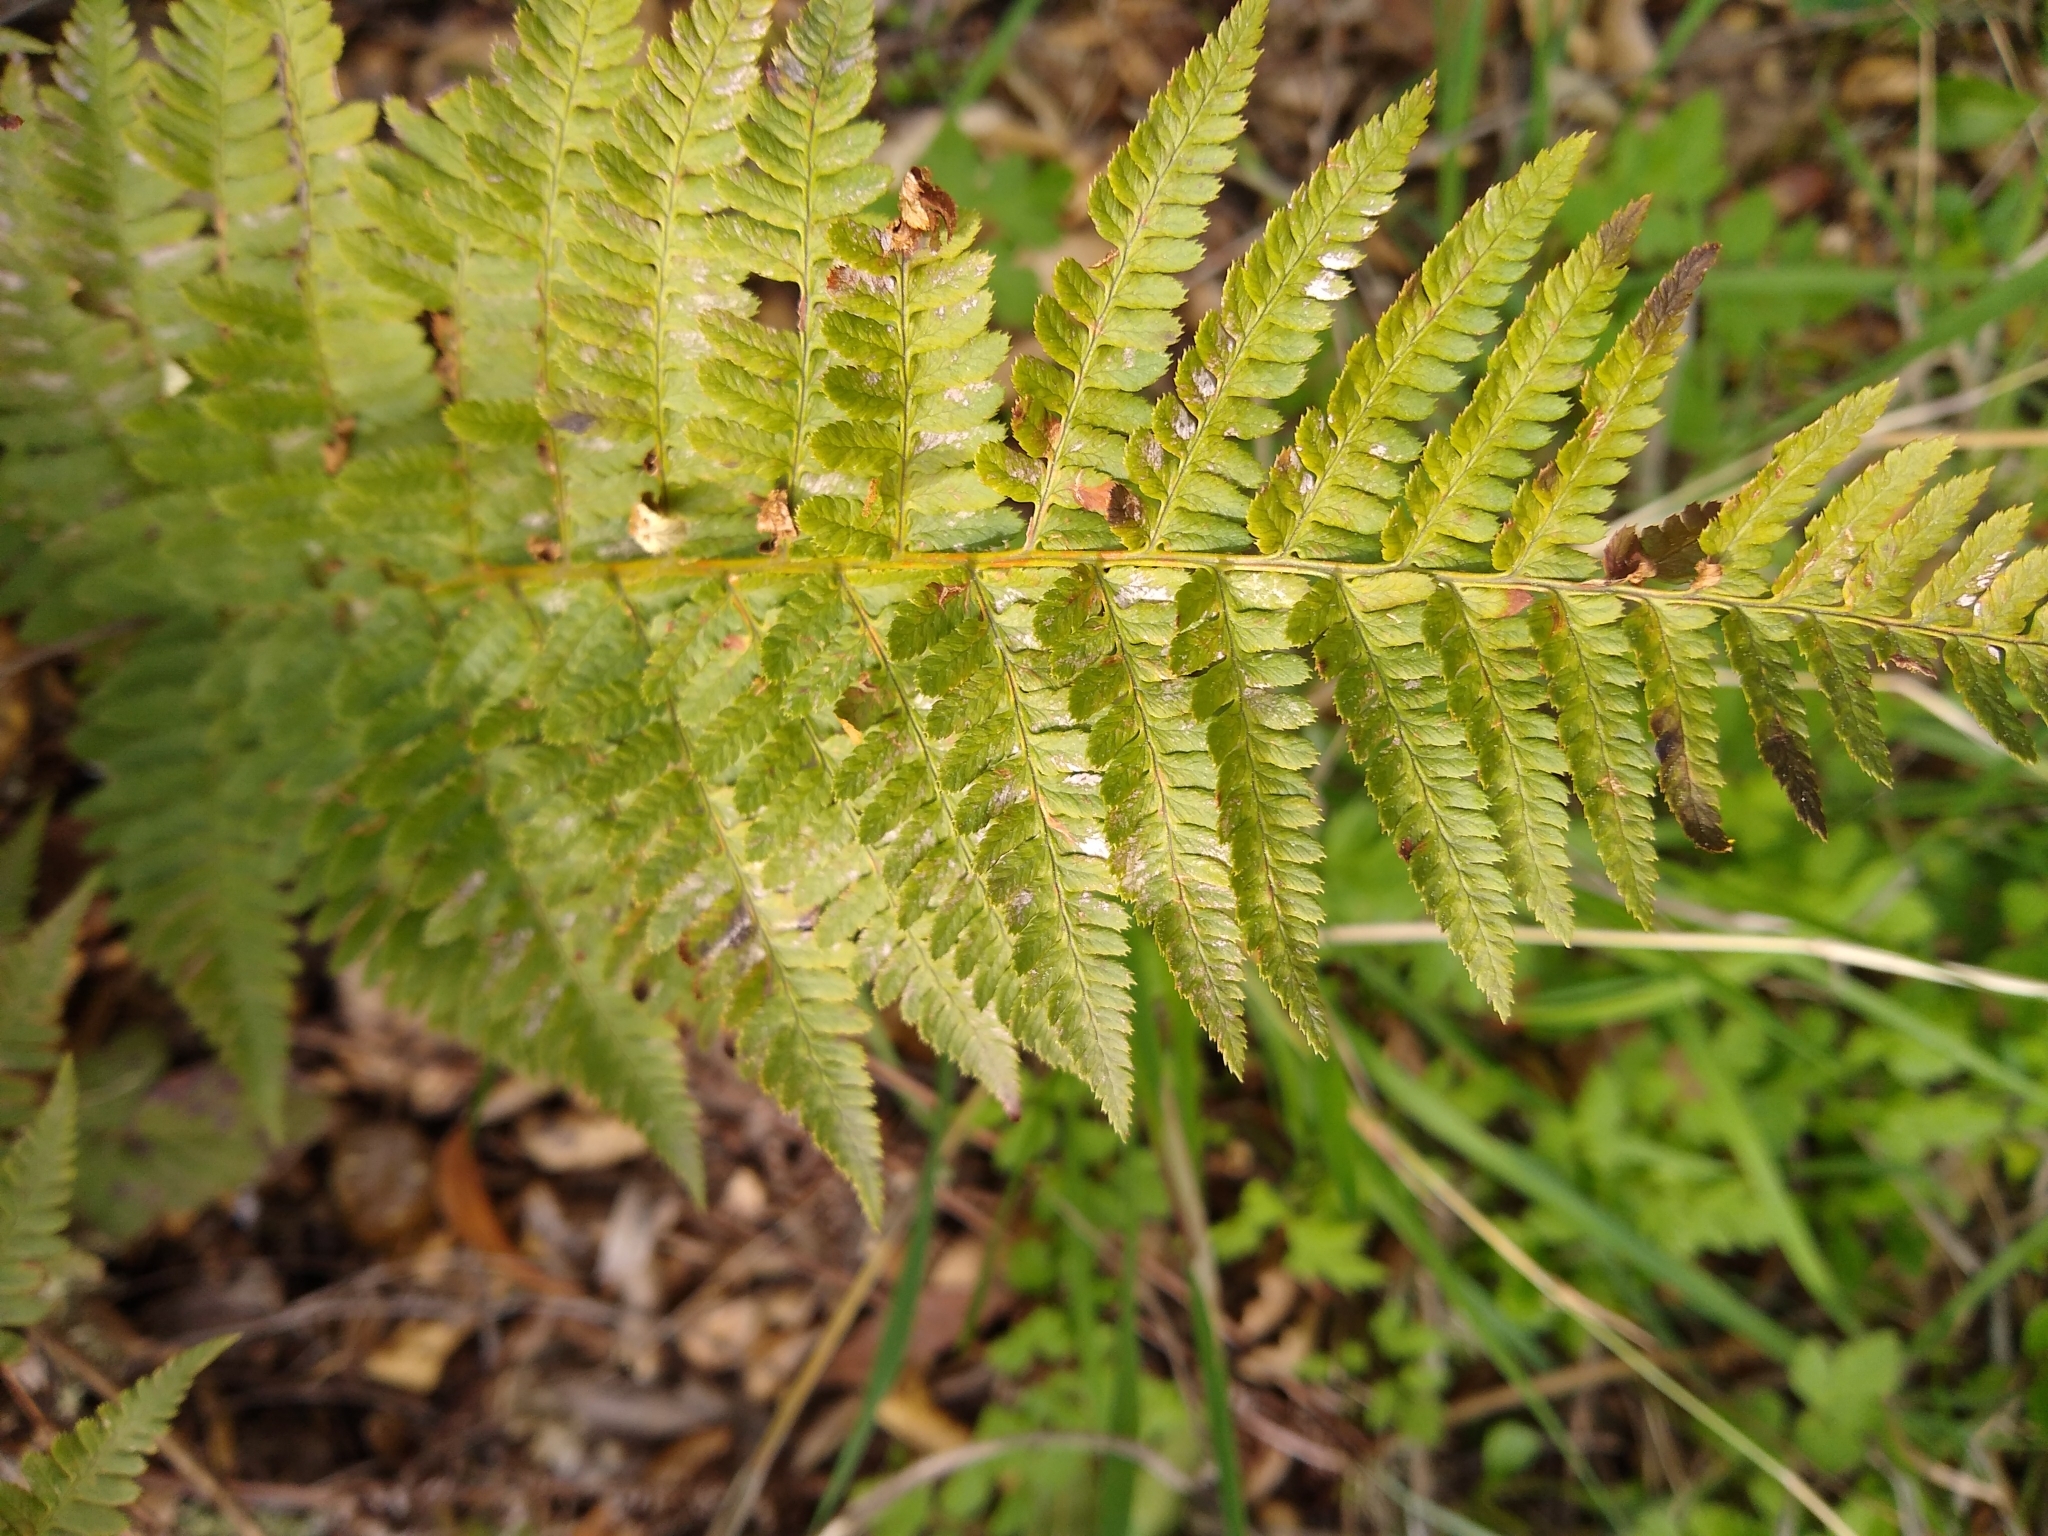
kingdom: Plantae
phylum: Tracheophyta
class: Polypodiopsida
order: Polypodiales
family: Dryopteridaceae
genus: Dryopteris
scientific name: Dryopteris arguta
